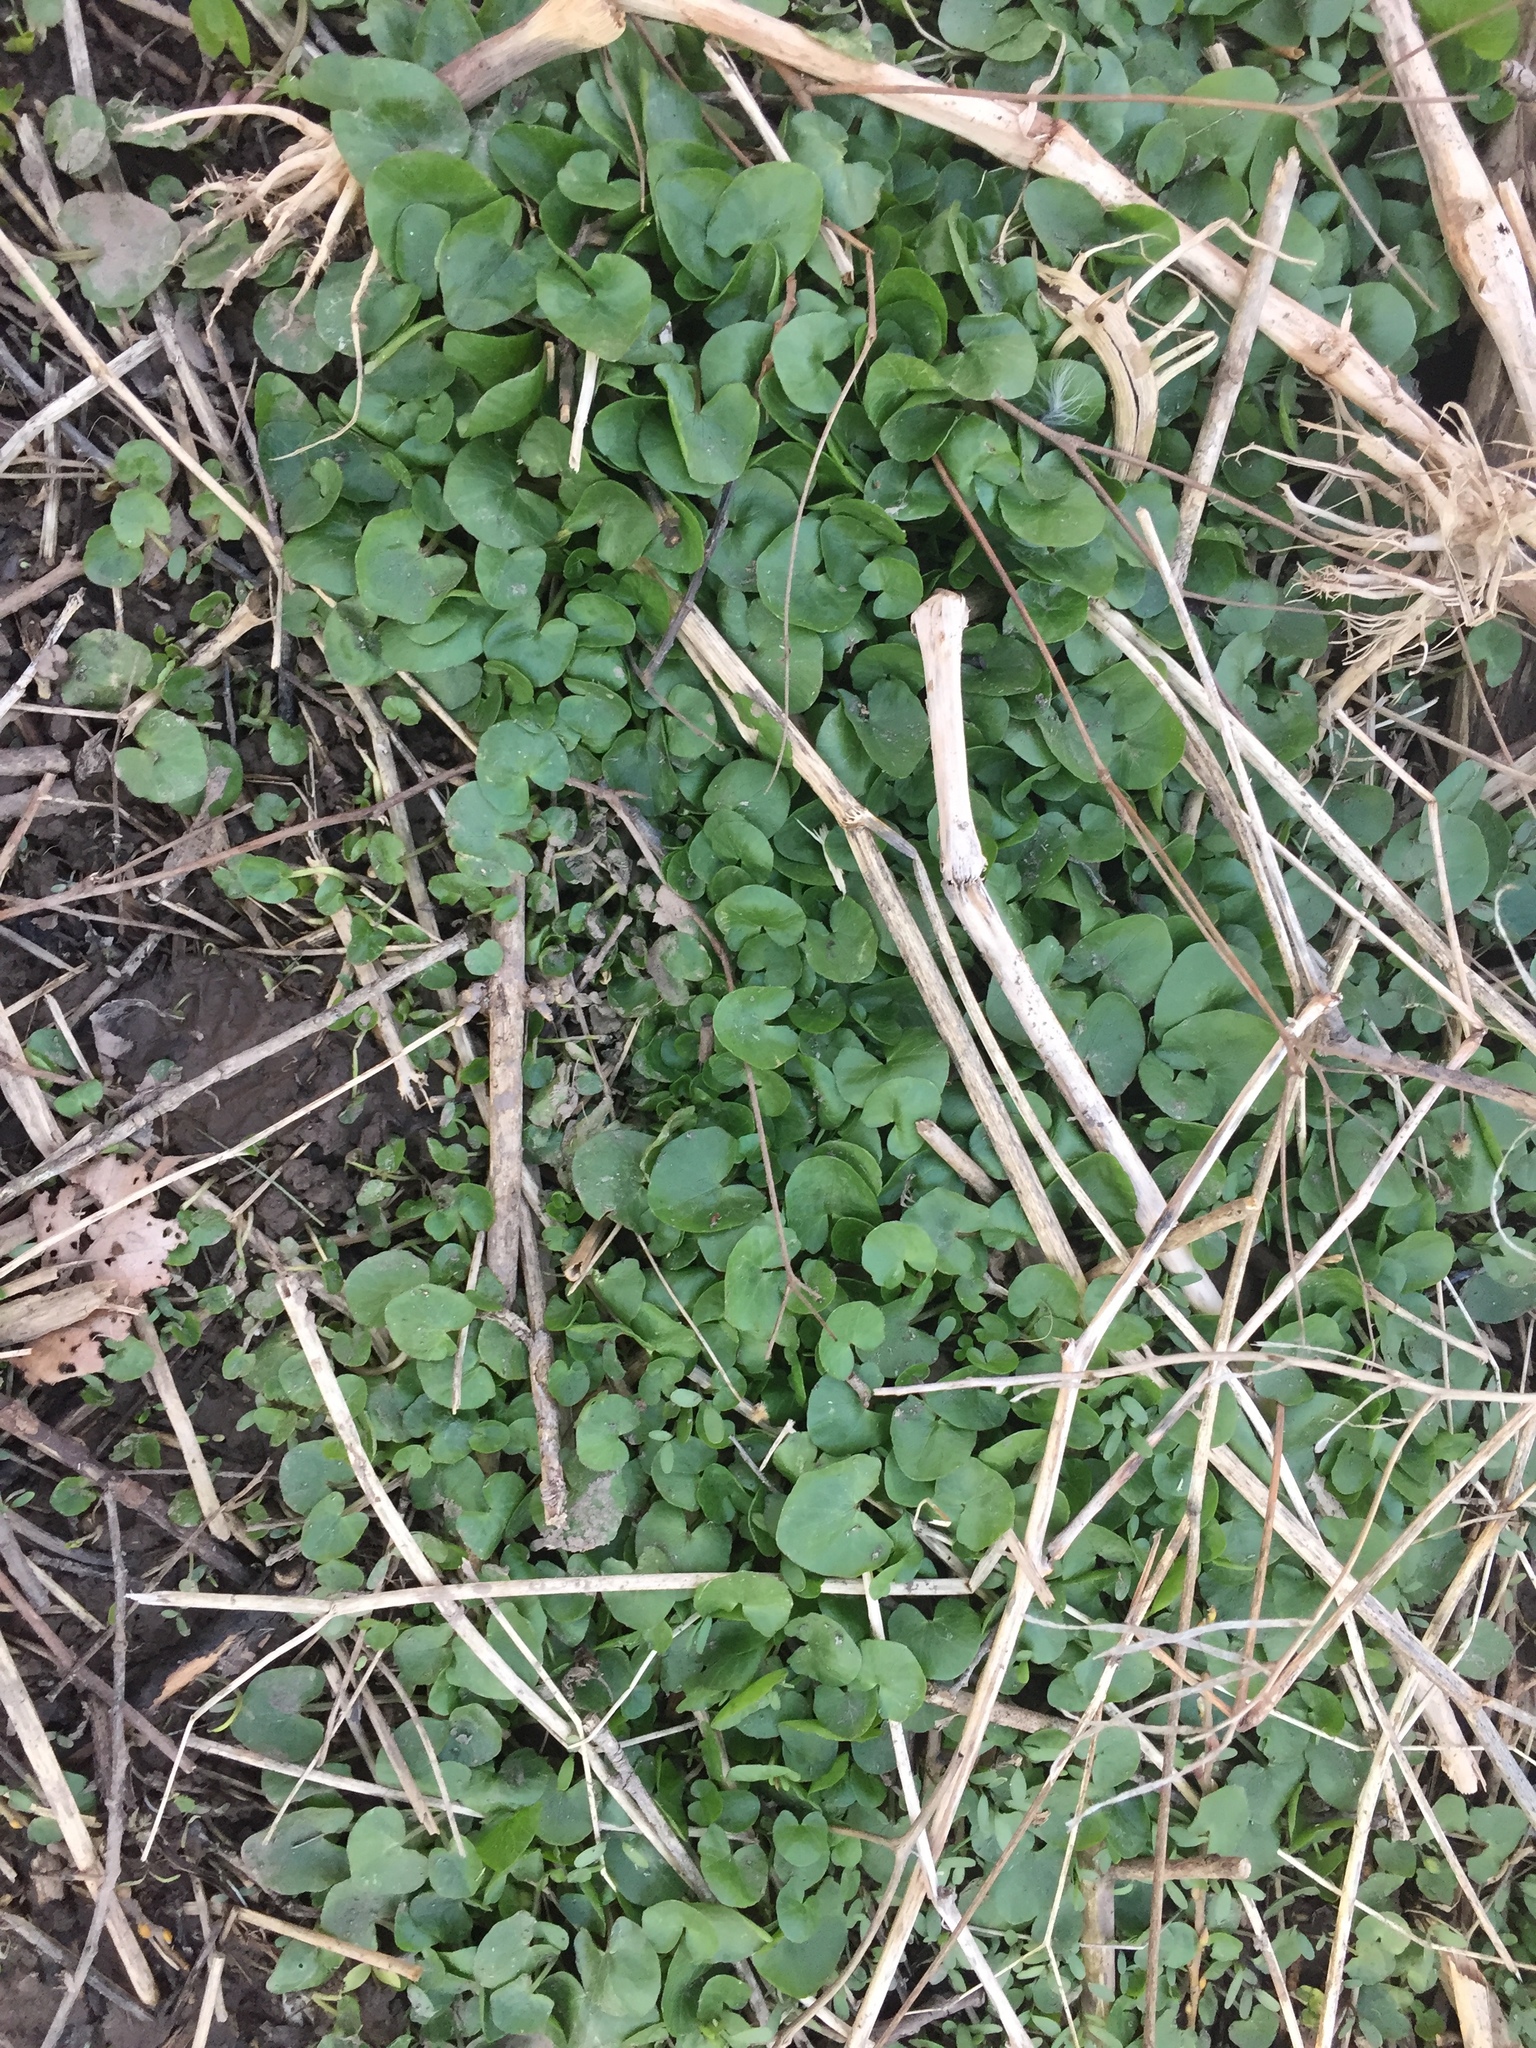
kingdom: Plantae
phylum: Tracheophyta
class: Magnoliopsida
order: Ranunculales
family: Ranunculaceae
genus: Ficaria
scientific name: Ficaria verna
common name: Lesser celandine
